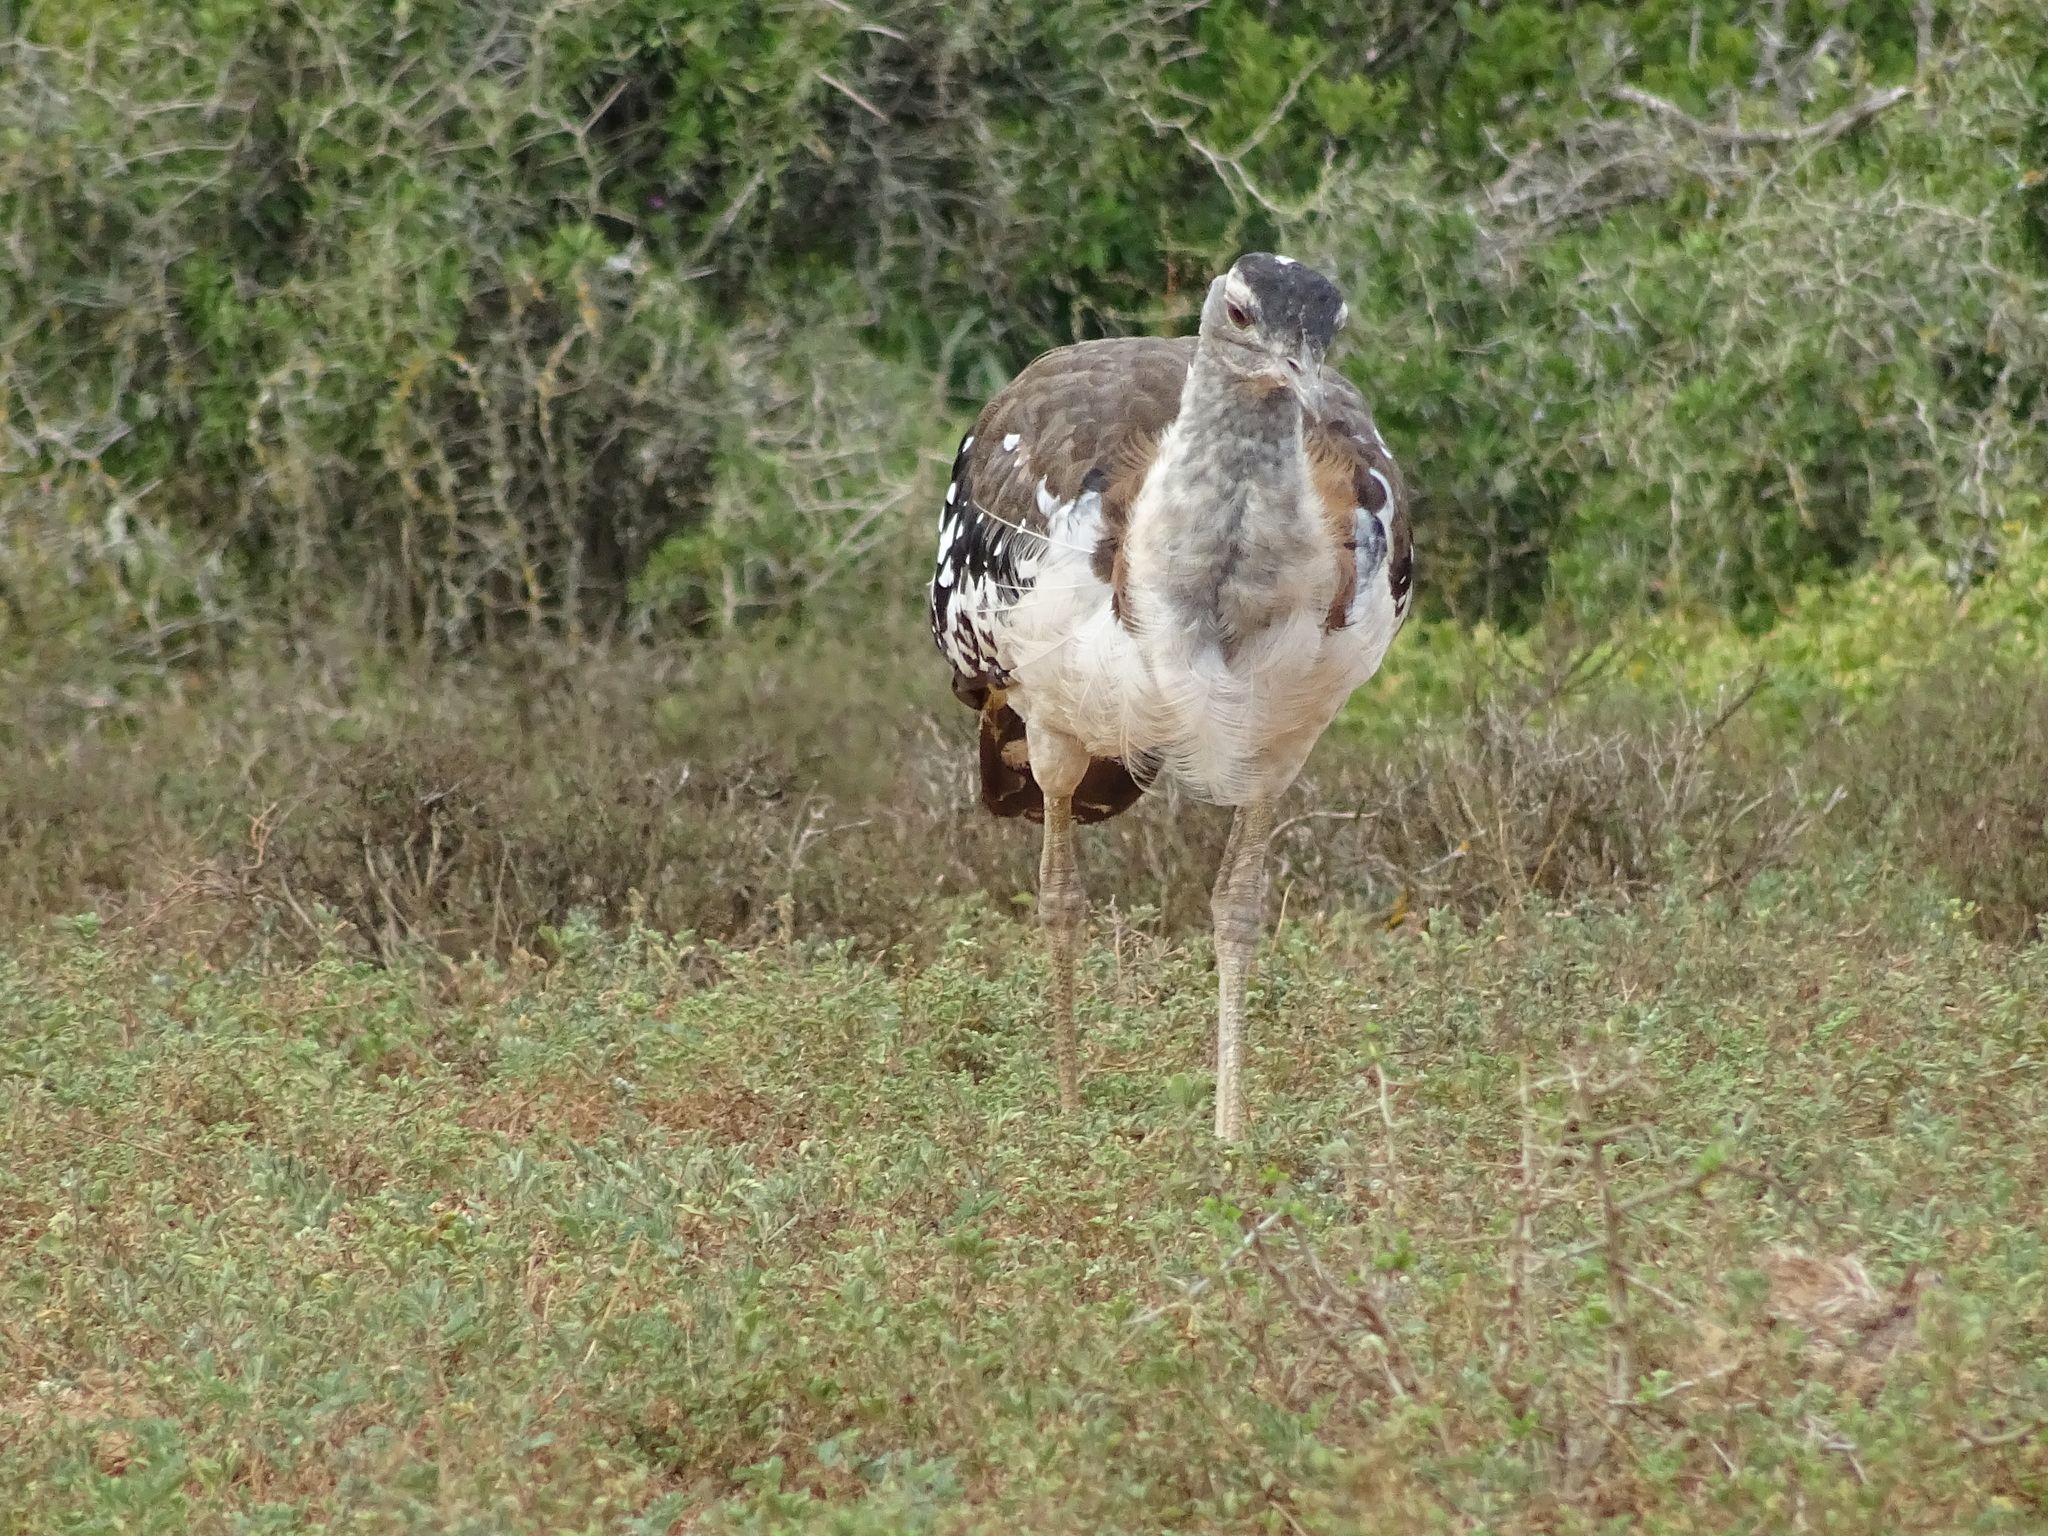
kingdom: Animalia
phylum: Chordata
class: Aves
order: Otidiformes
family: Otididae
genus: Neotis
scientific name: Neotis denhami
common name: Denham's bustard
